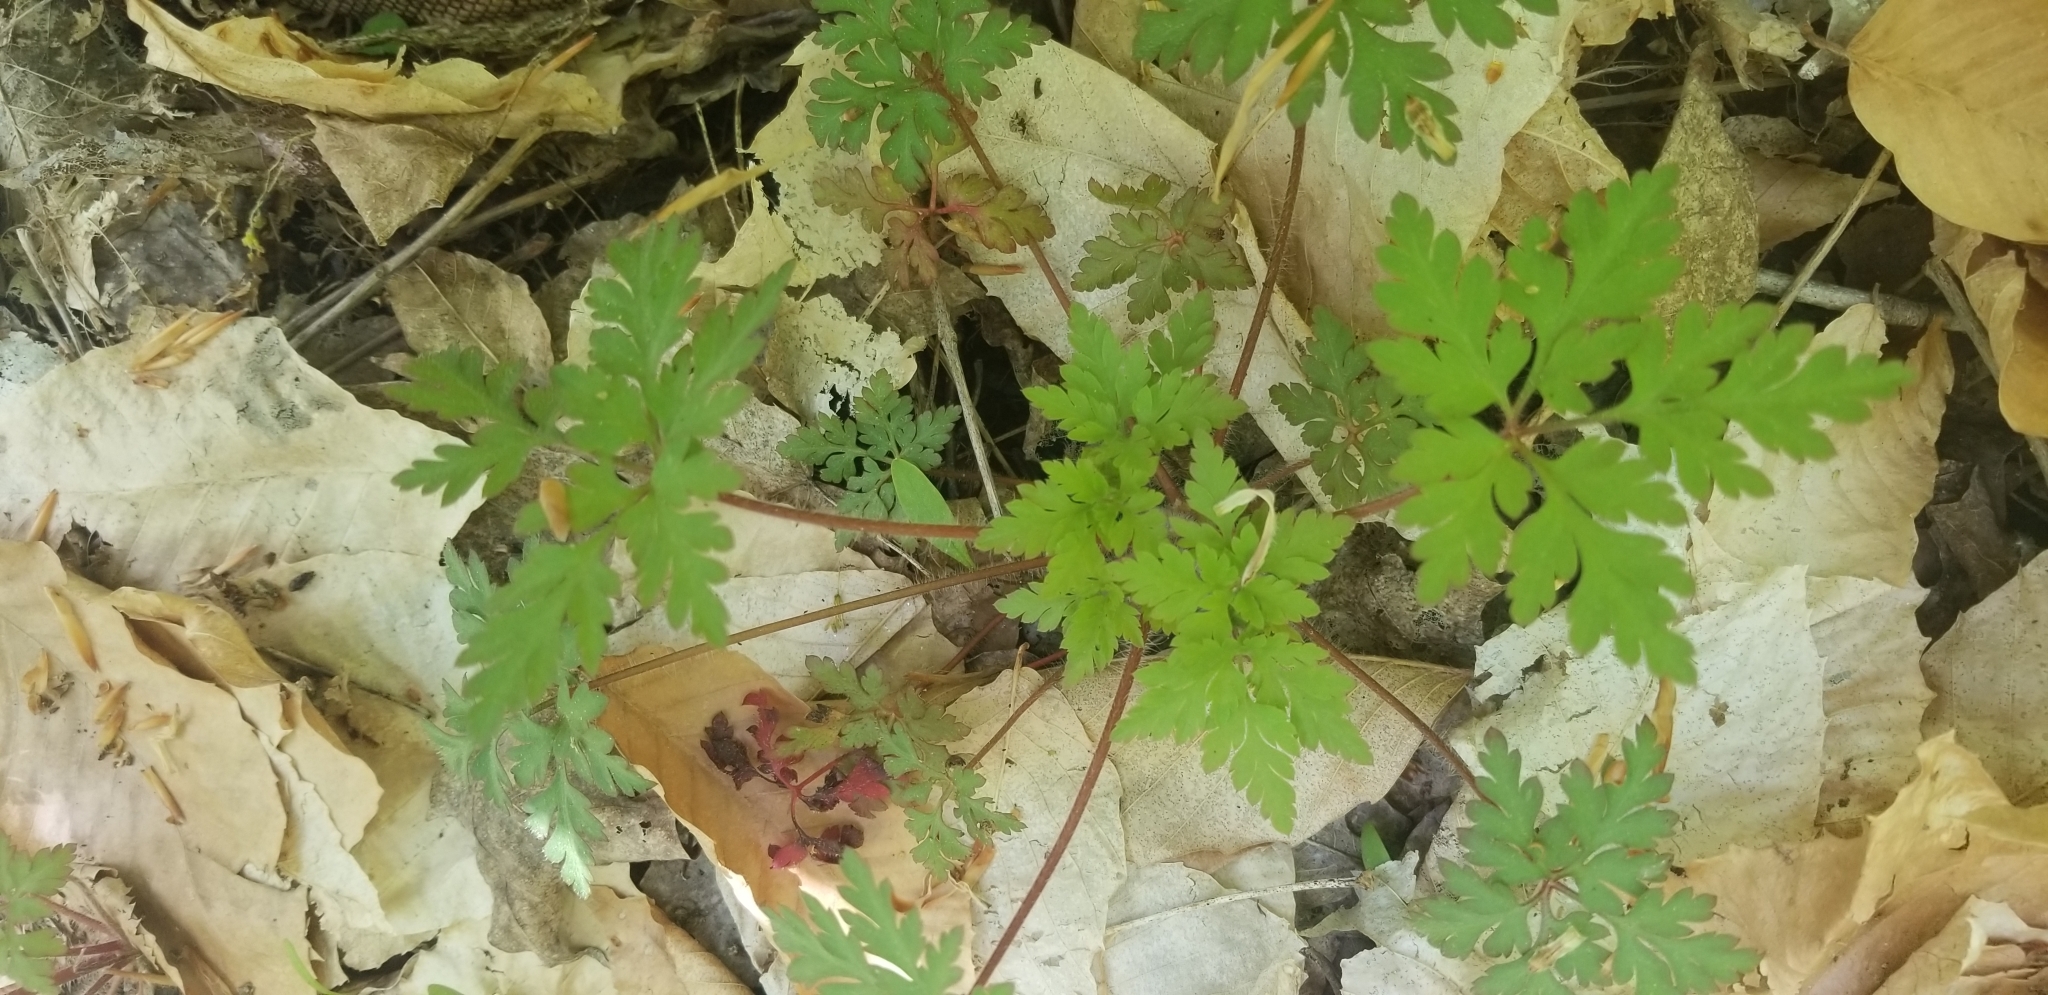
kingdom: Plantae
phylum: Tracheophyta
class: Magnoliopsida
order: Geraniales
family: Geraniaceae
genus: Geranium
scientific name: Geranium robertianum
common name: Herb-robert
